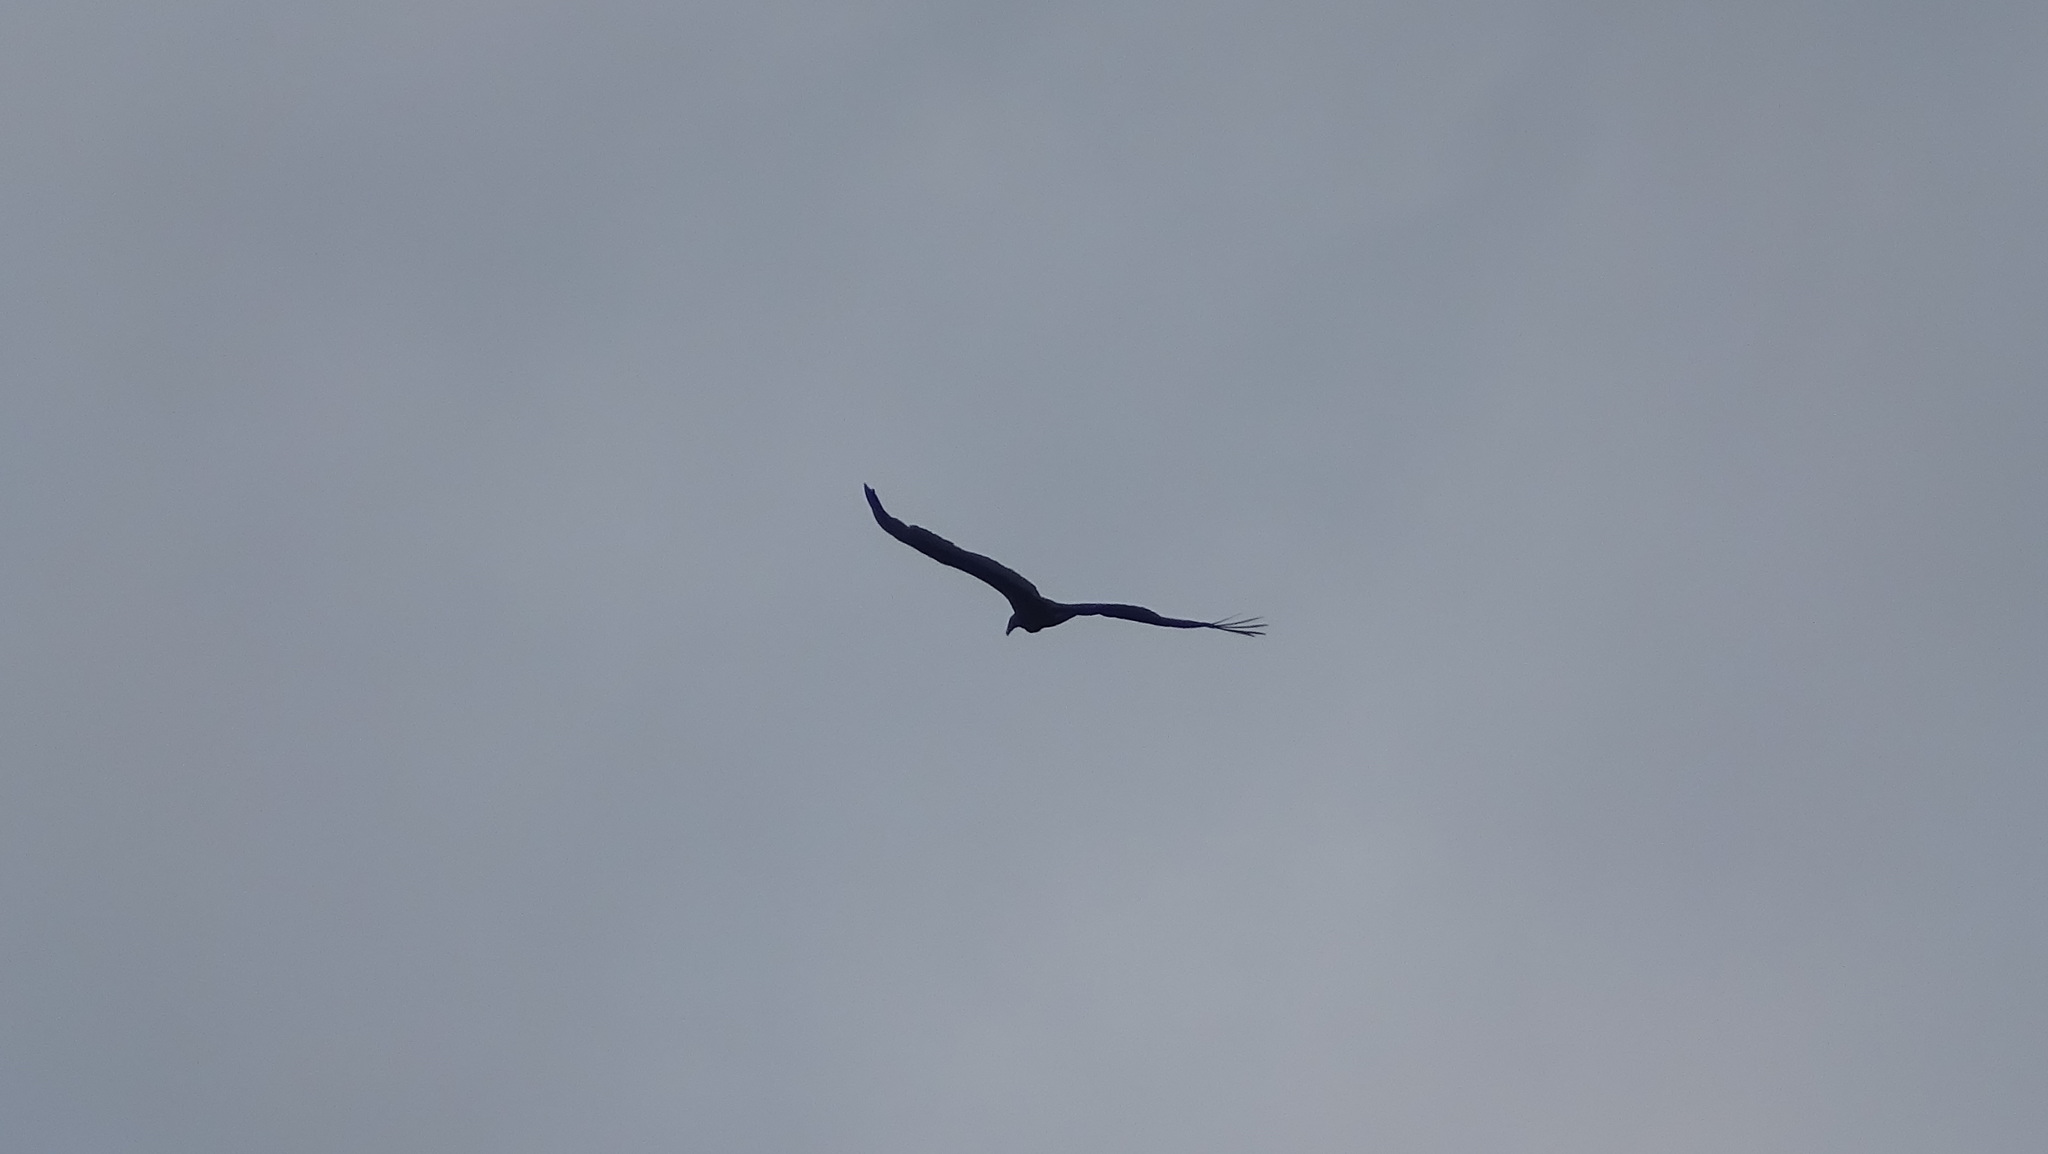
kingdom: Animalia
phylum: Chordata
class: Aves
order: Accipitriformes
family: Cathartidae
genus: Cathartes
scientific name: Cathartes aura
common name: Turkey vulture
